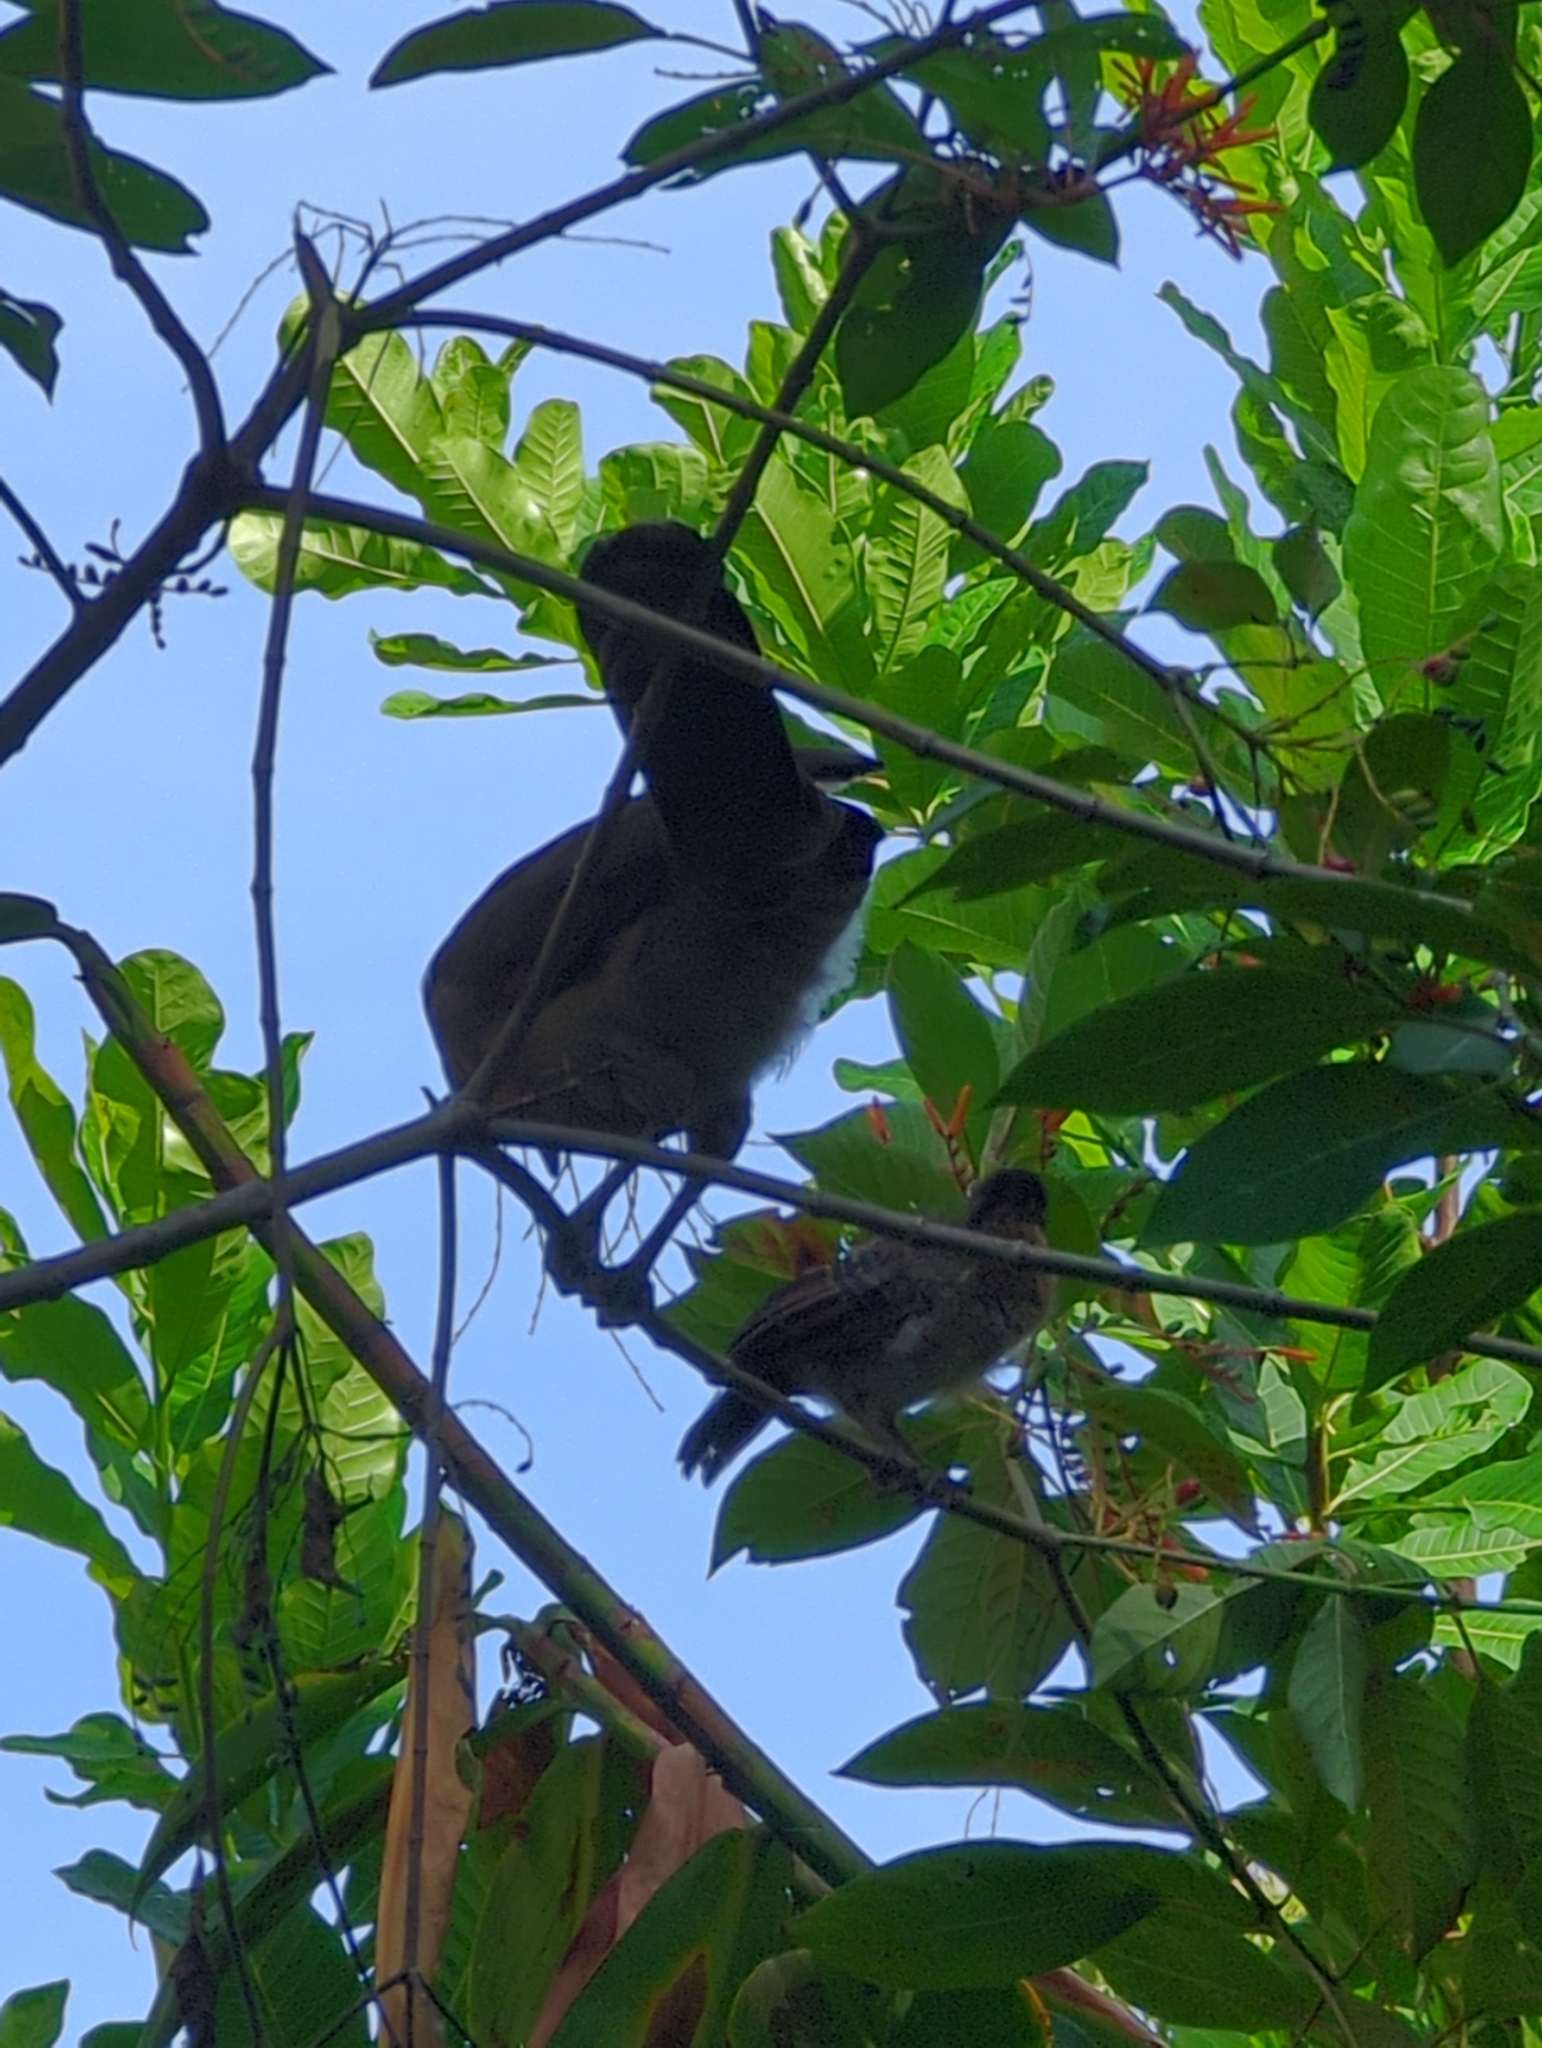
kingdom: Animalia
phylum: Chordata
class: Aves
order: Galliformes
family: Cracidae
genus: Ortalis
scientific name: Ortalis cinereiceps
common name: Grey-headed chachalaca
